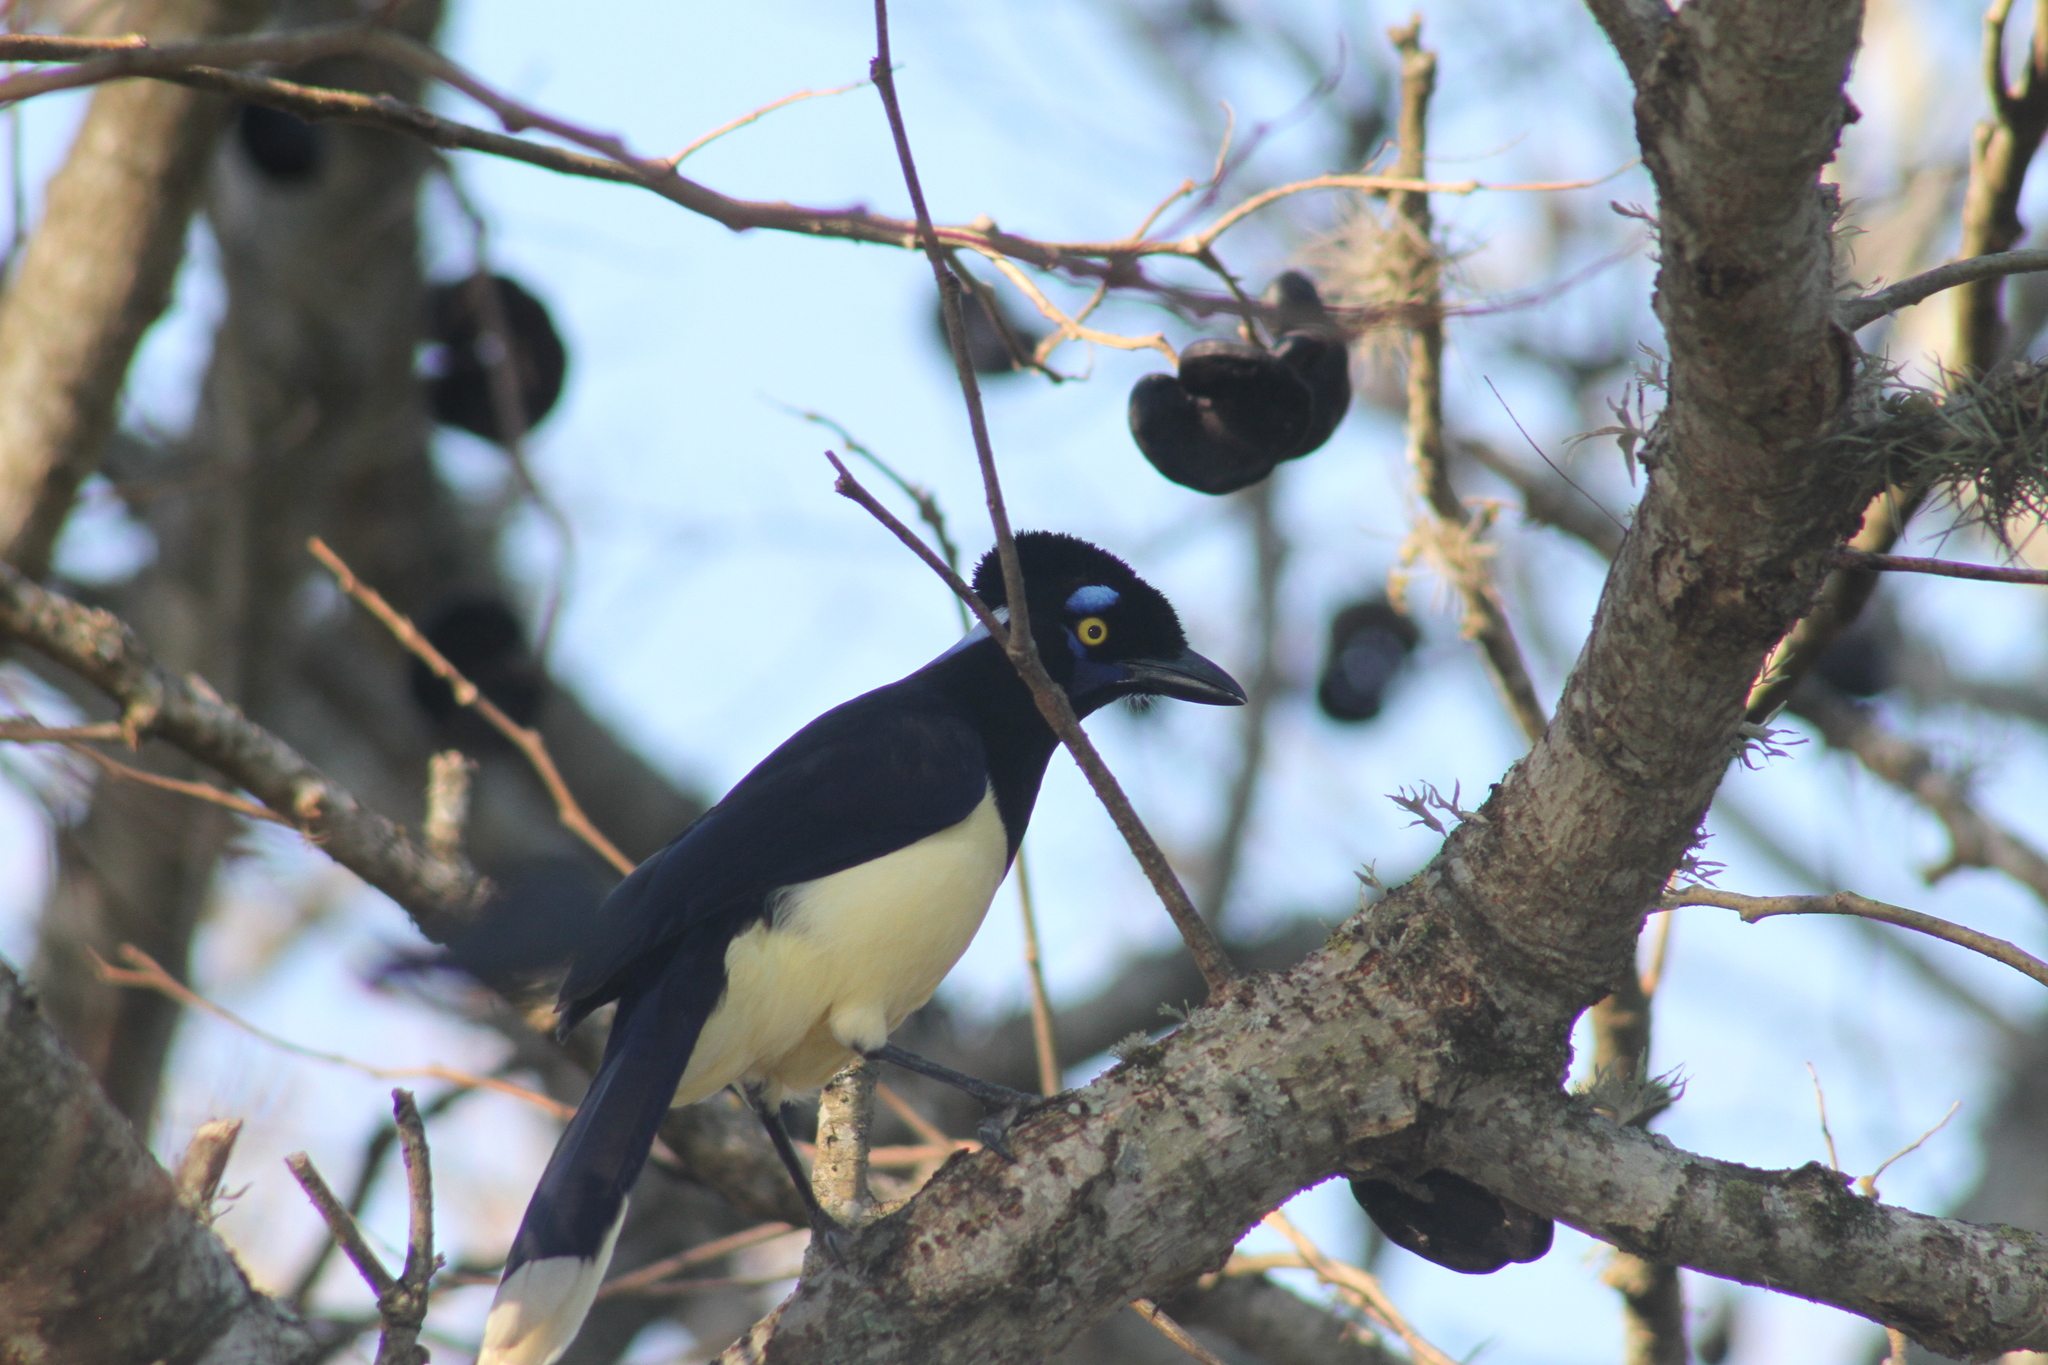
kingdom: Animalia
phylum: Chordata
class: Aves
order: Passeriformes
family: Corvidae
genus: Cyanocorax
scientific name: Cyanocorax chrysops
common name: Plush-crested jay
